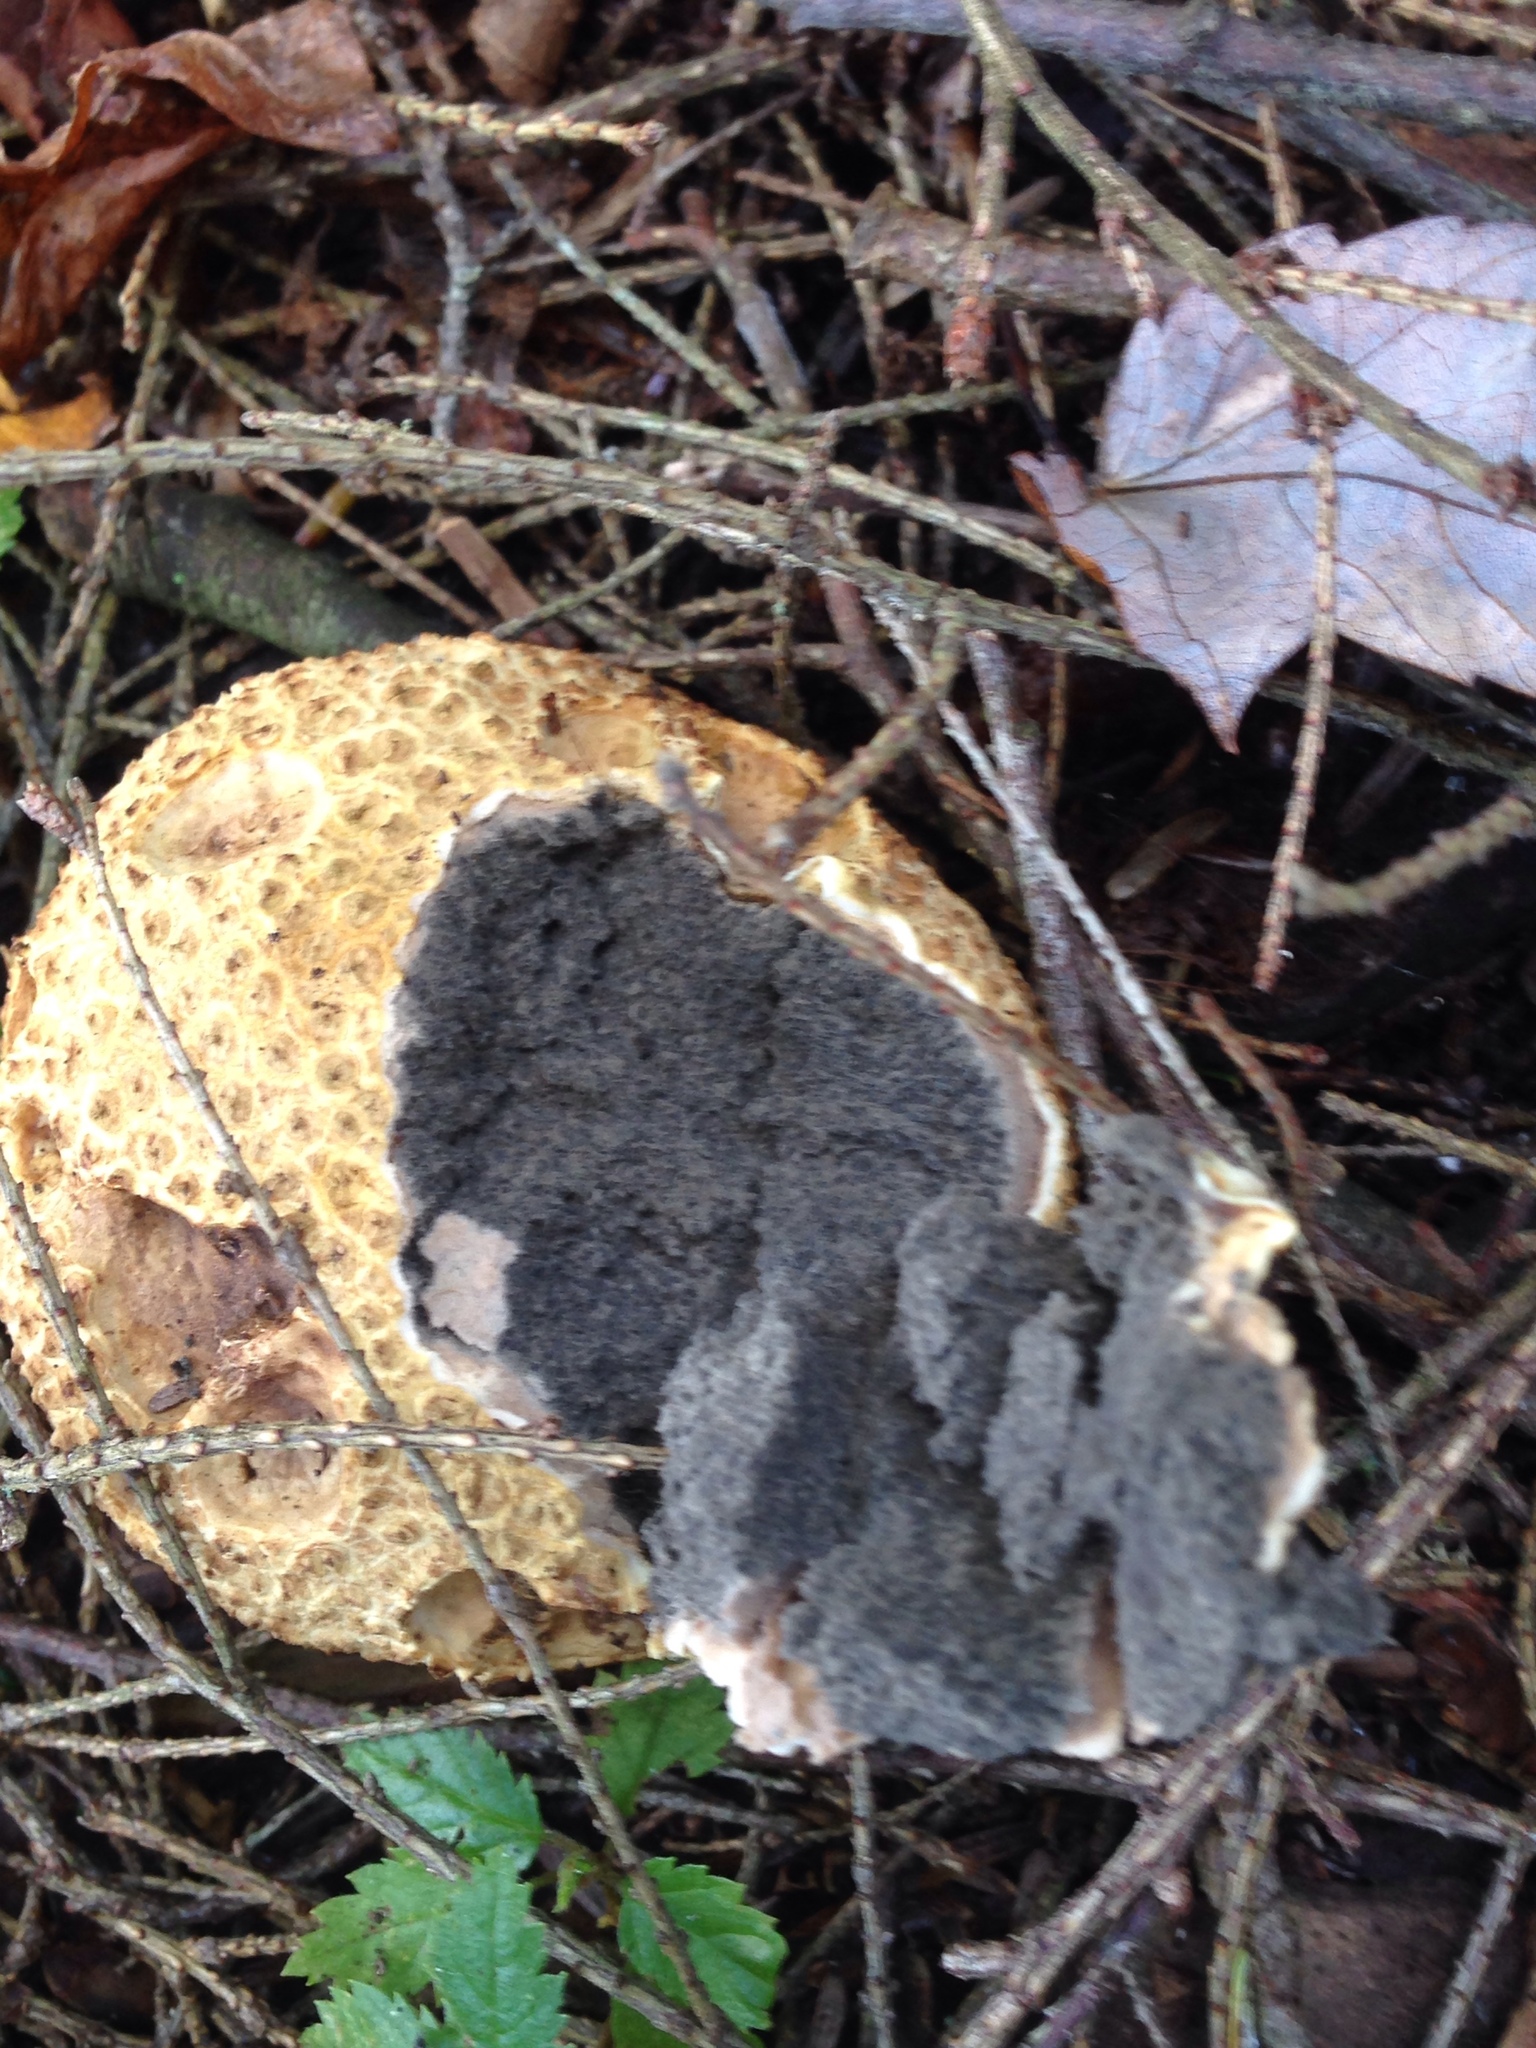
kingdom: Fungi
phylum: Basidiomycota
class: Agaricomycetes
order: Boletales
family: Sclerodermataceae
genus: Scleroderma
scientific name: Scleroderma citrinum
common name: Common earthball
